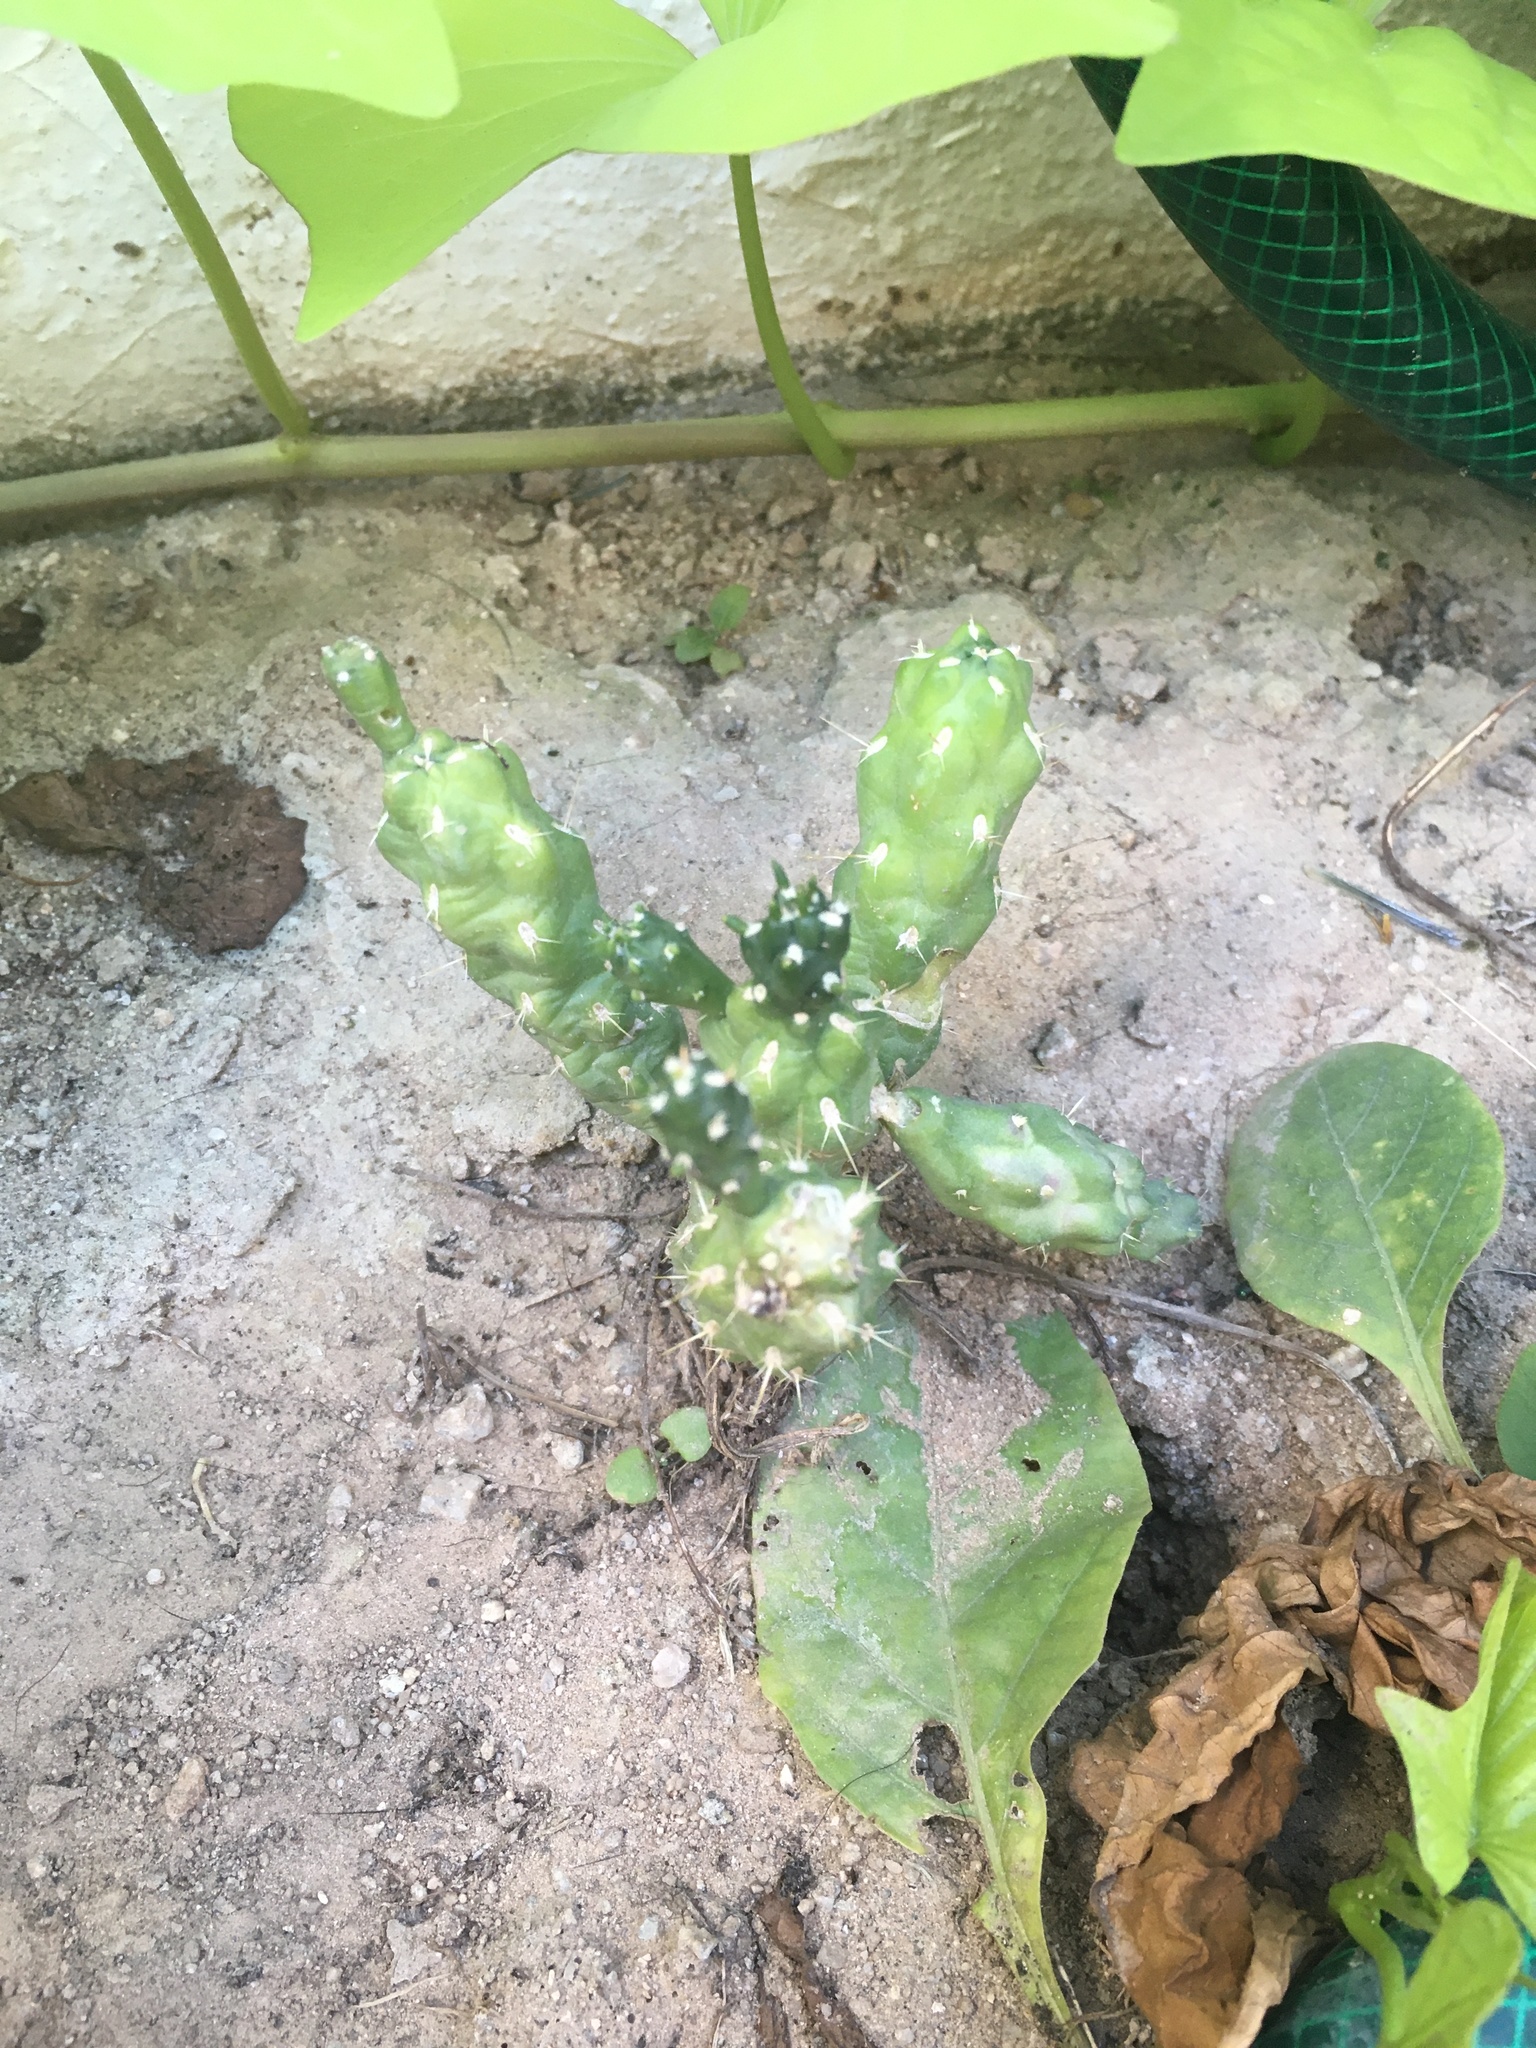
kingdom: Plantae
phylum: Tracheophyta
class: Magnoliopsida
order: Caryophyllales
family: Cactaceae
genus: Cylindropuntia
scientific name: Cylindropuntia fulgida
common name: Jumping cholla
